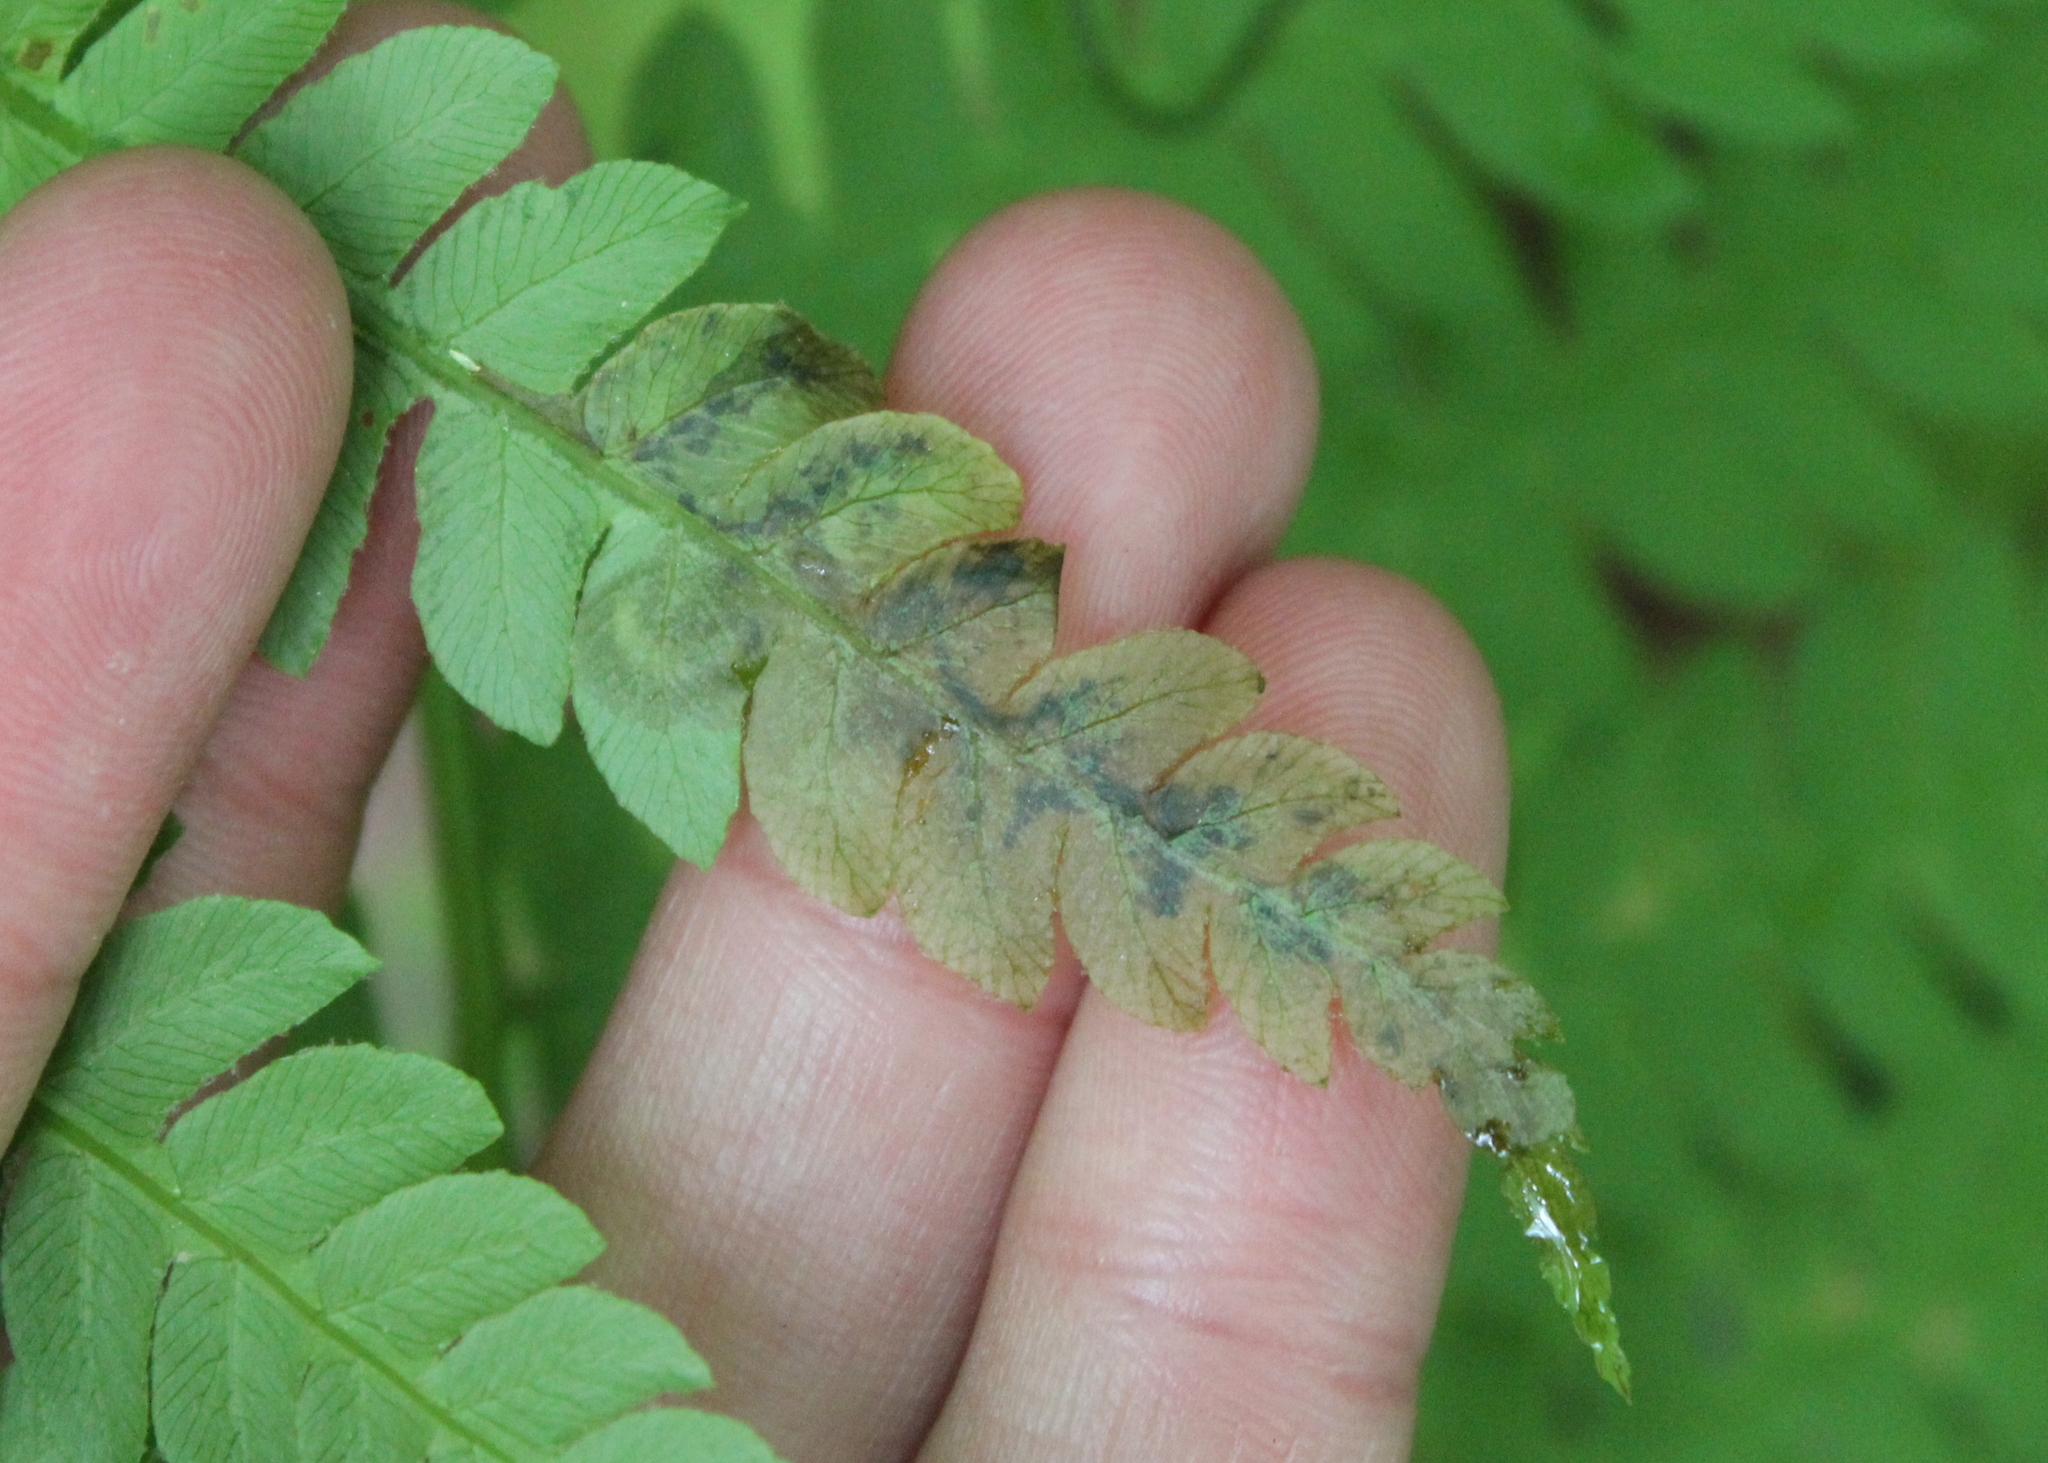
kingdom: Animalia
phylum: Arthropoda
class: Insecta
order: Diptera
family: Anthomyiidae
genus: Chirosia
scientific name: Chirosia filicis
